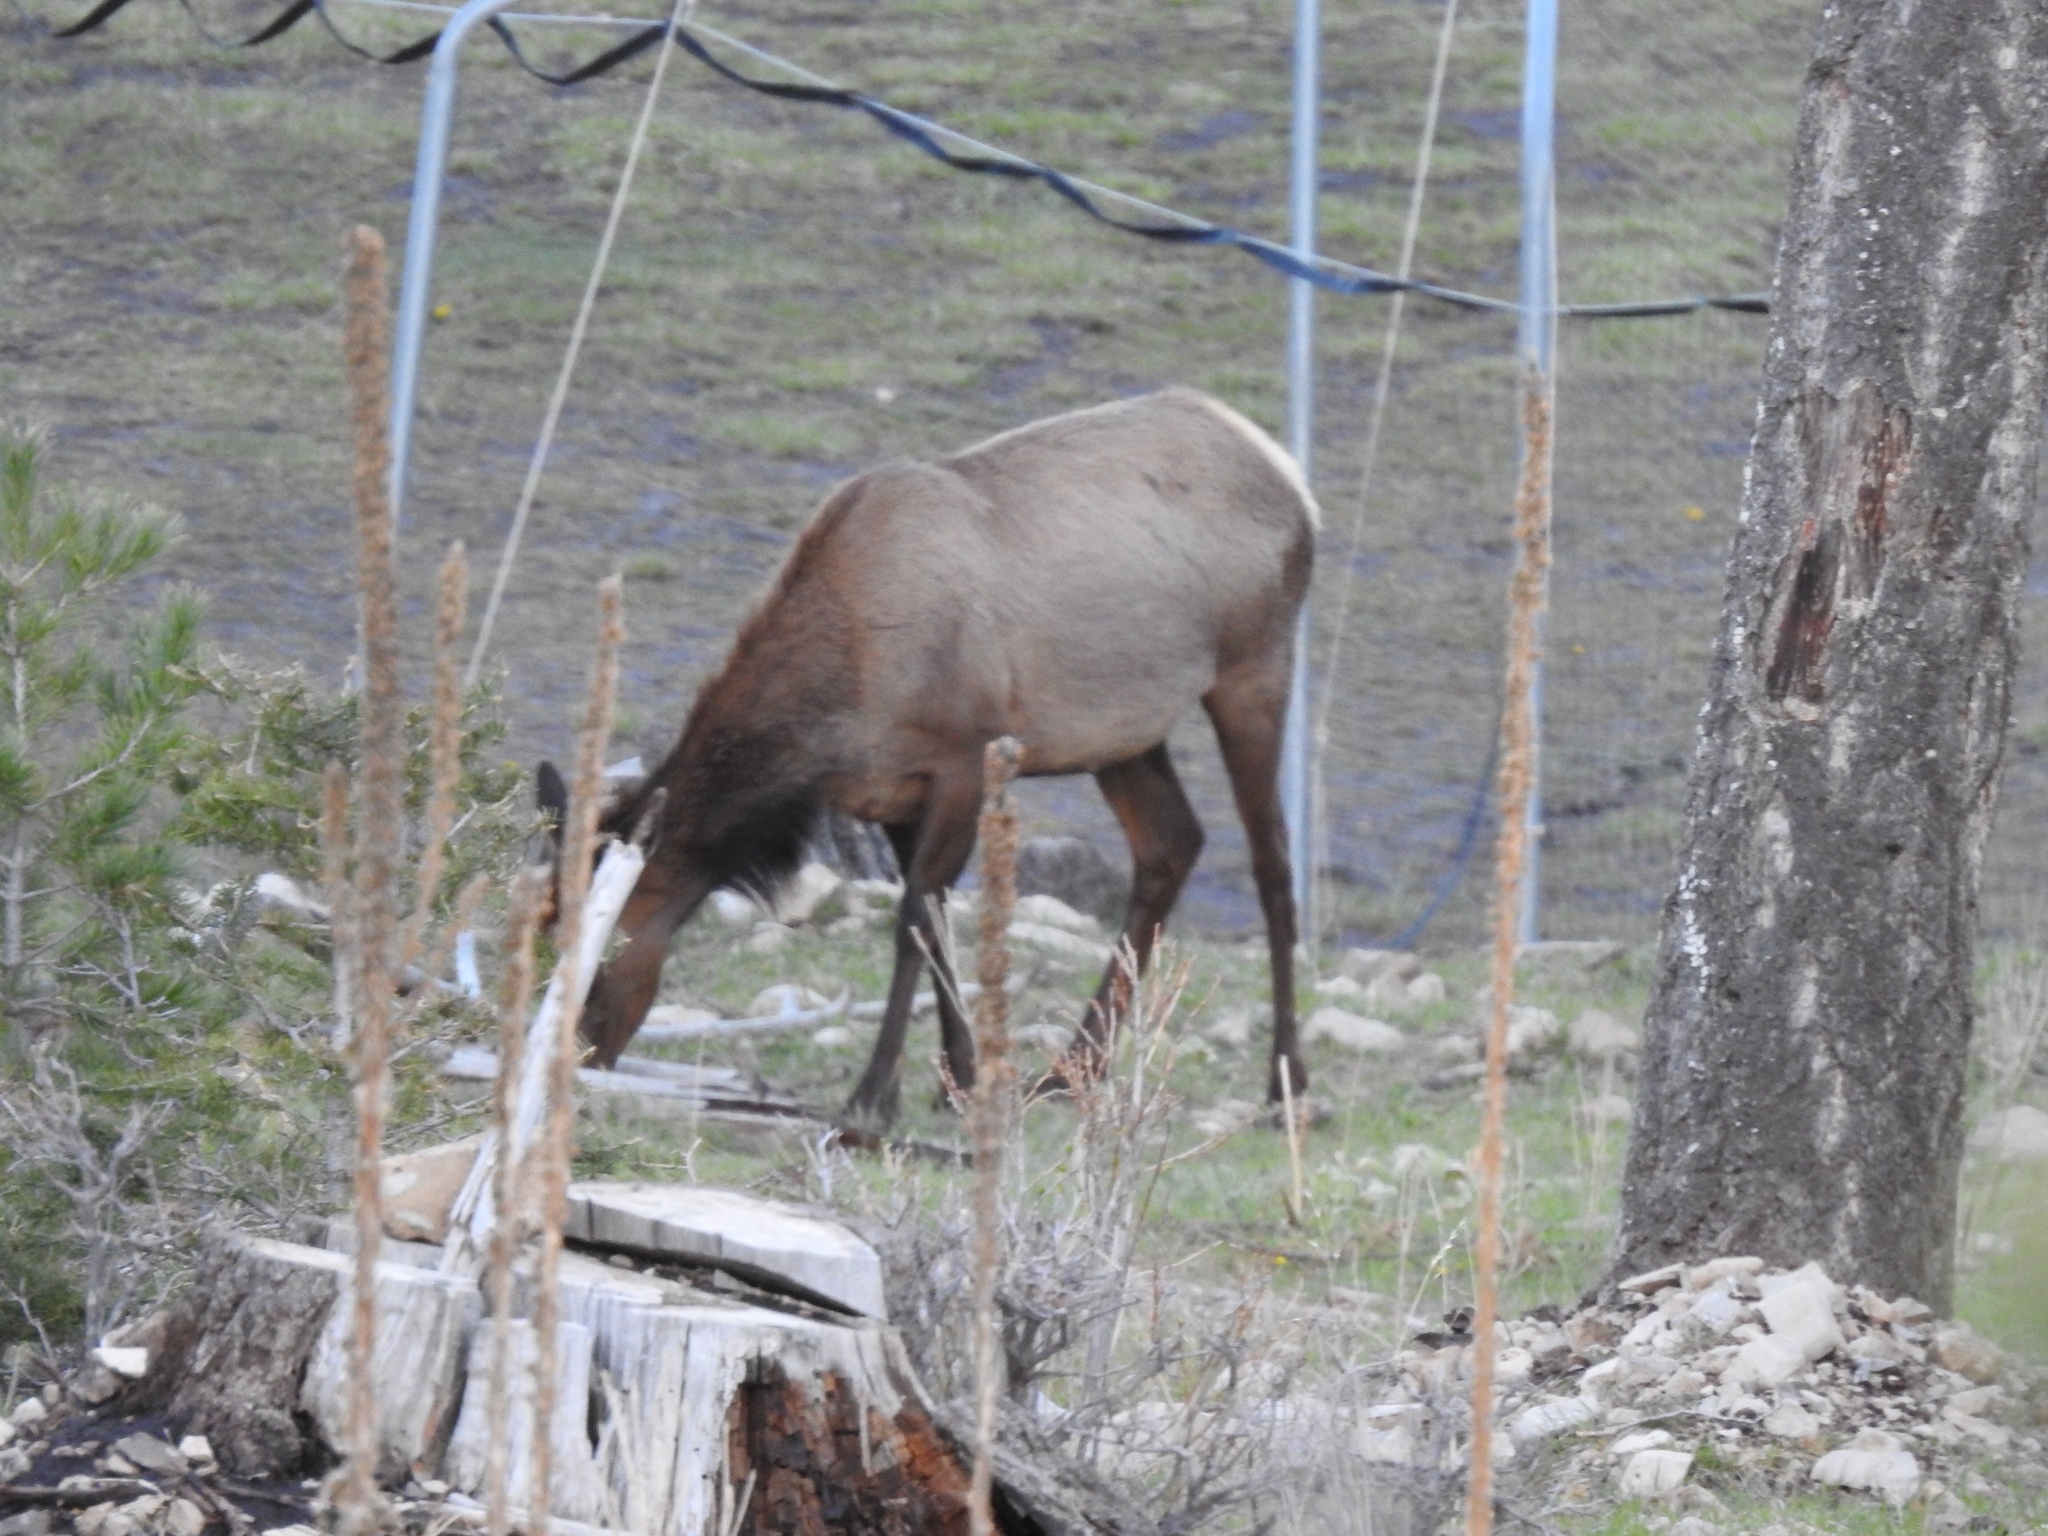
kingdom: Animalia
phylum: Chordata
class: Mammalia
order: Artiodactyla
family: Cervidae
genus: Cervus
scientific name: Cervus elaphus
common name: Red deer
